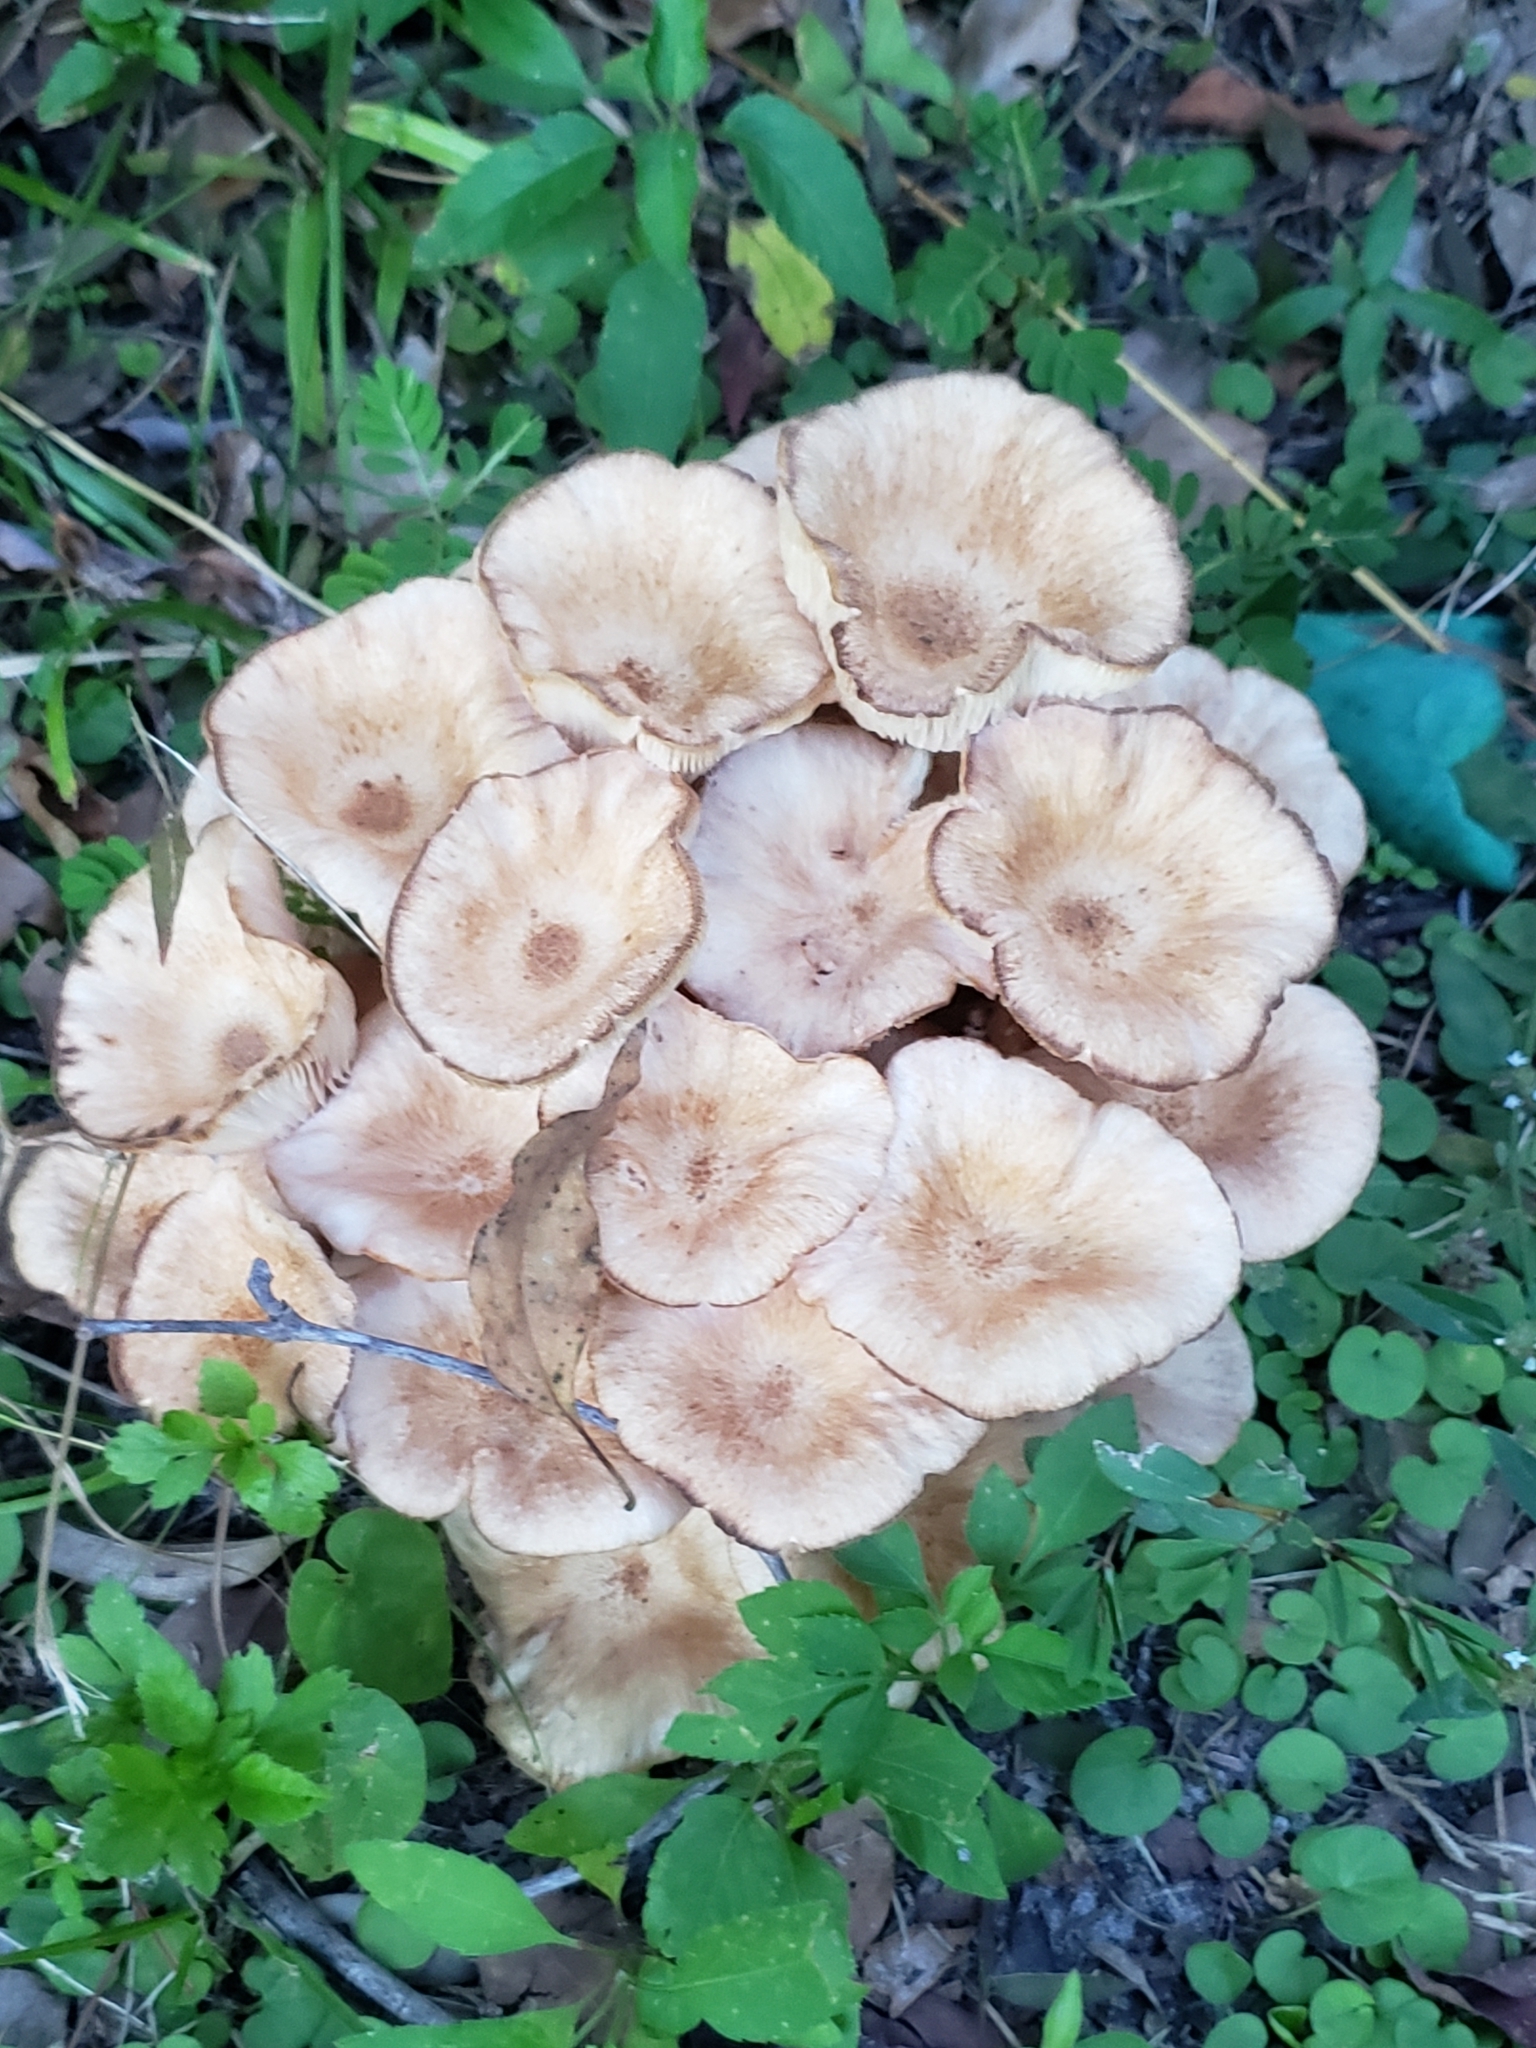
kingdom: Fungi
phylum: Basidiomycota
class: Agaricomycetes
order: Agaricales
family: Physalacriaceae
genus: Desarmillaria
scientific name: Desarmillaria caespitosa
